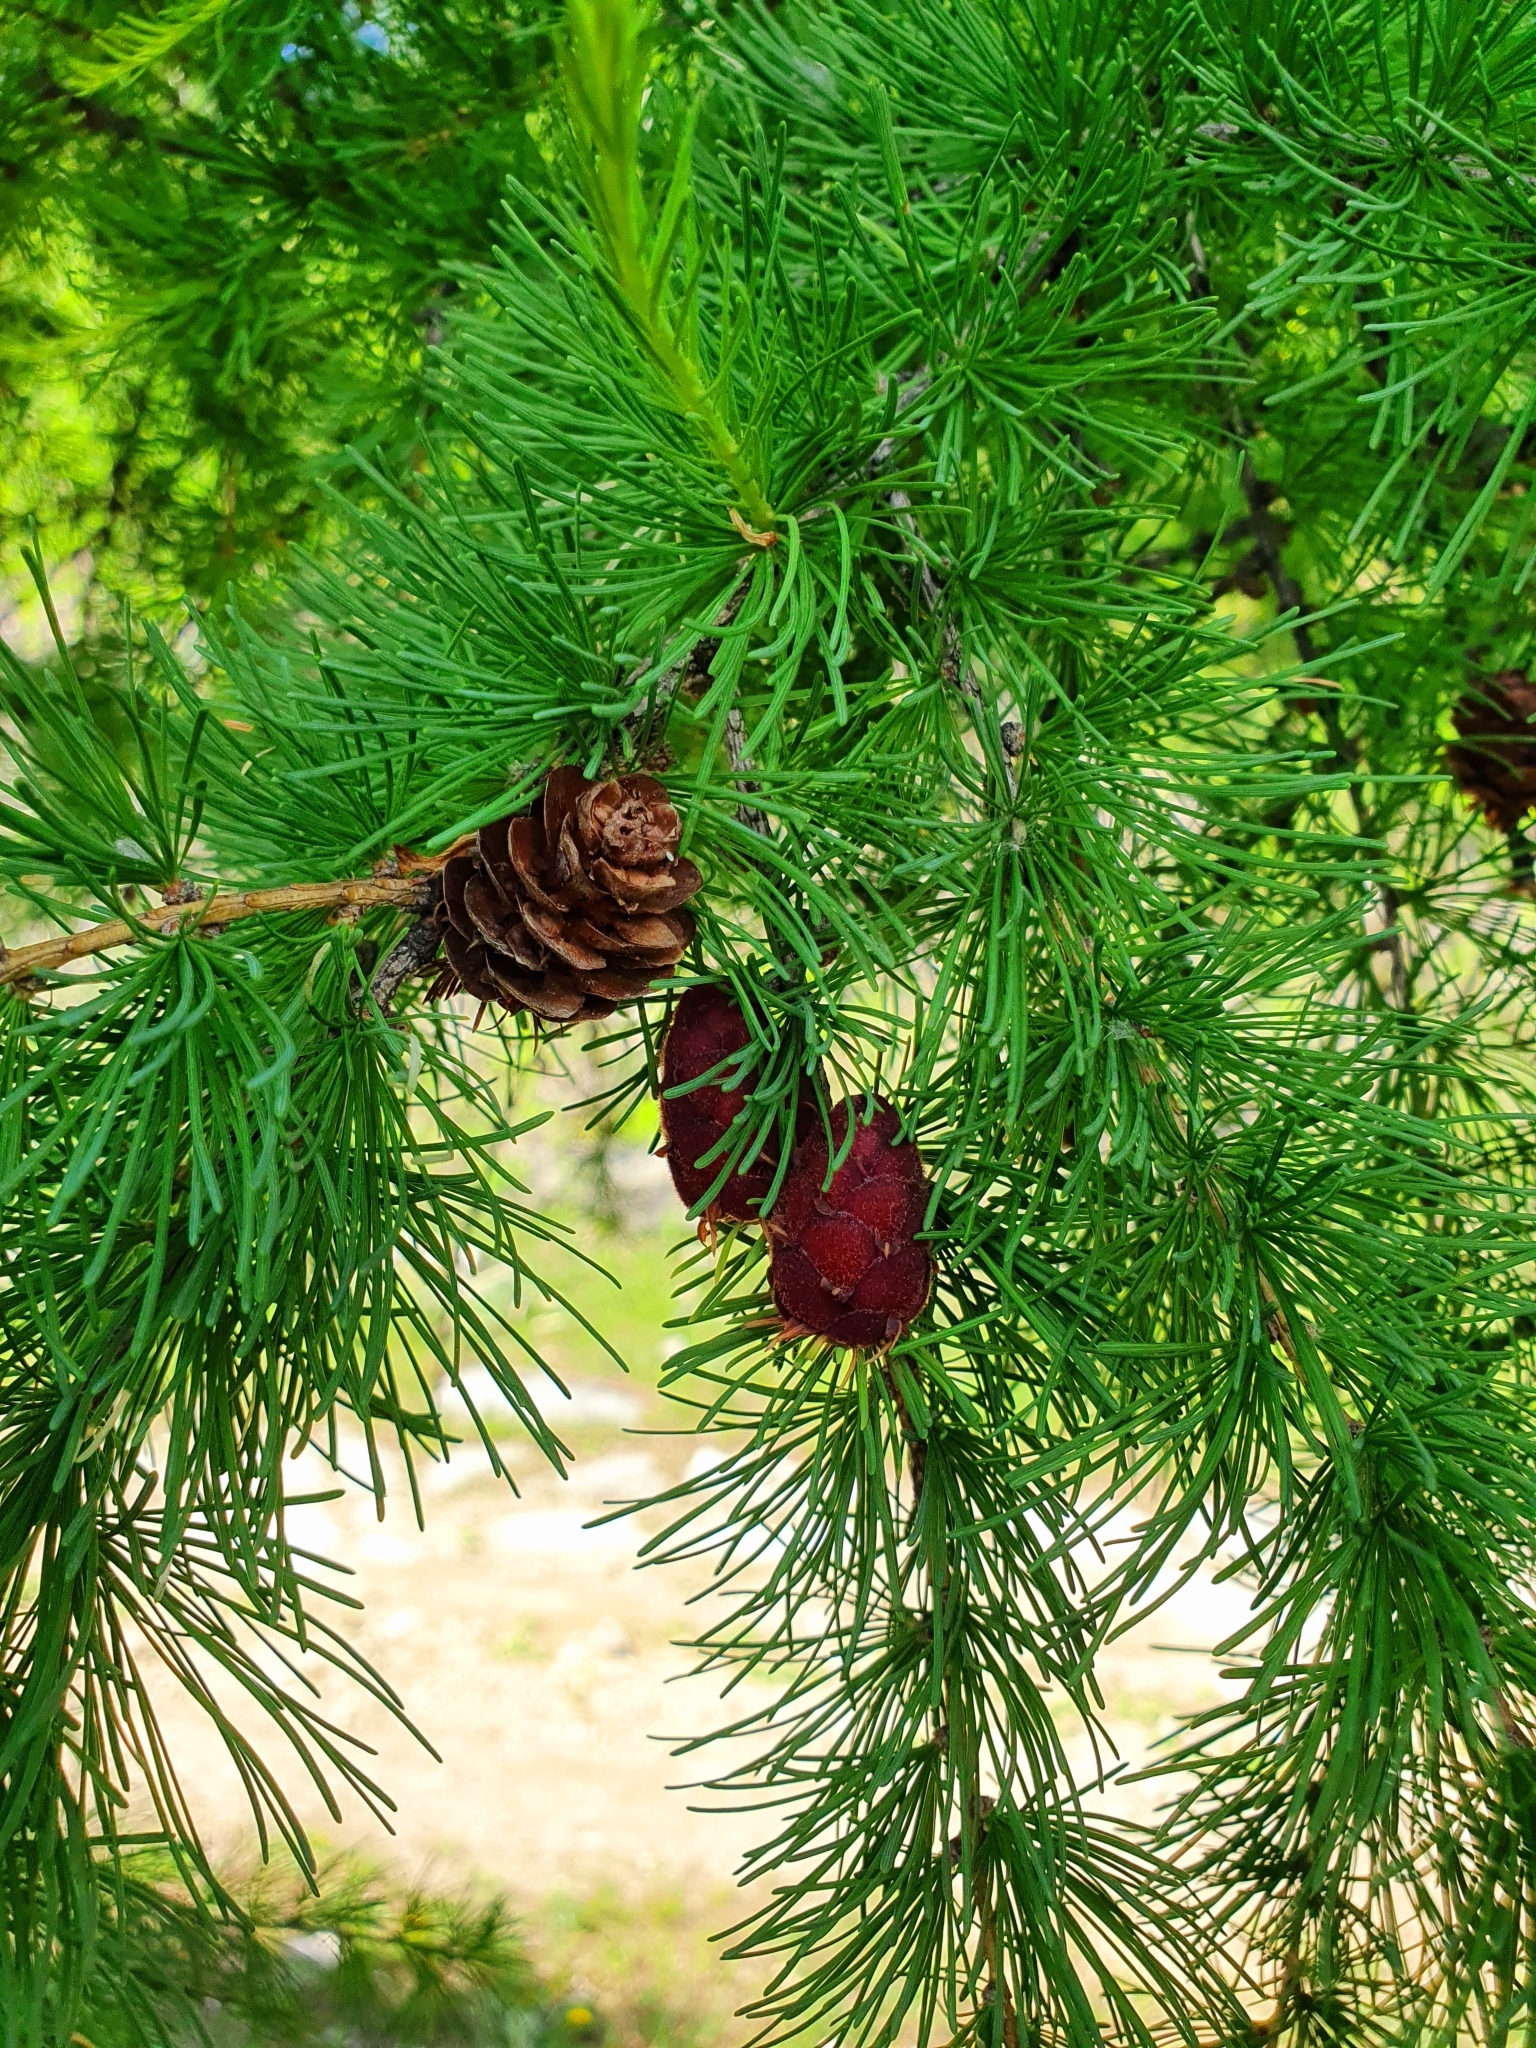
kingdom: Plantae
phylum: Tracheophyta
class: Pinopsida
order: Pinales
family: Pinaceae
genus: Larix
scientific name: Larix sibirica
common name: Siberian larch
